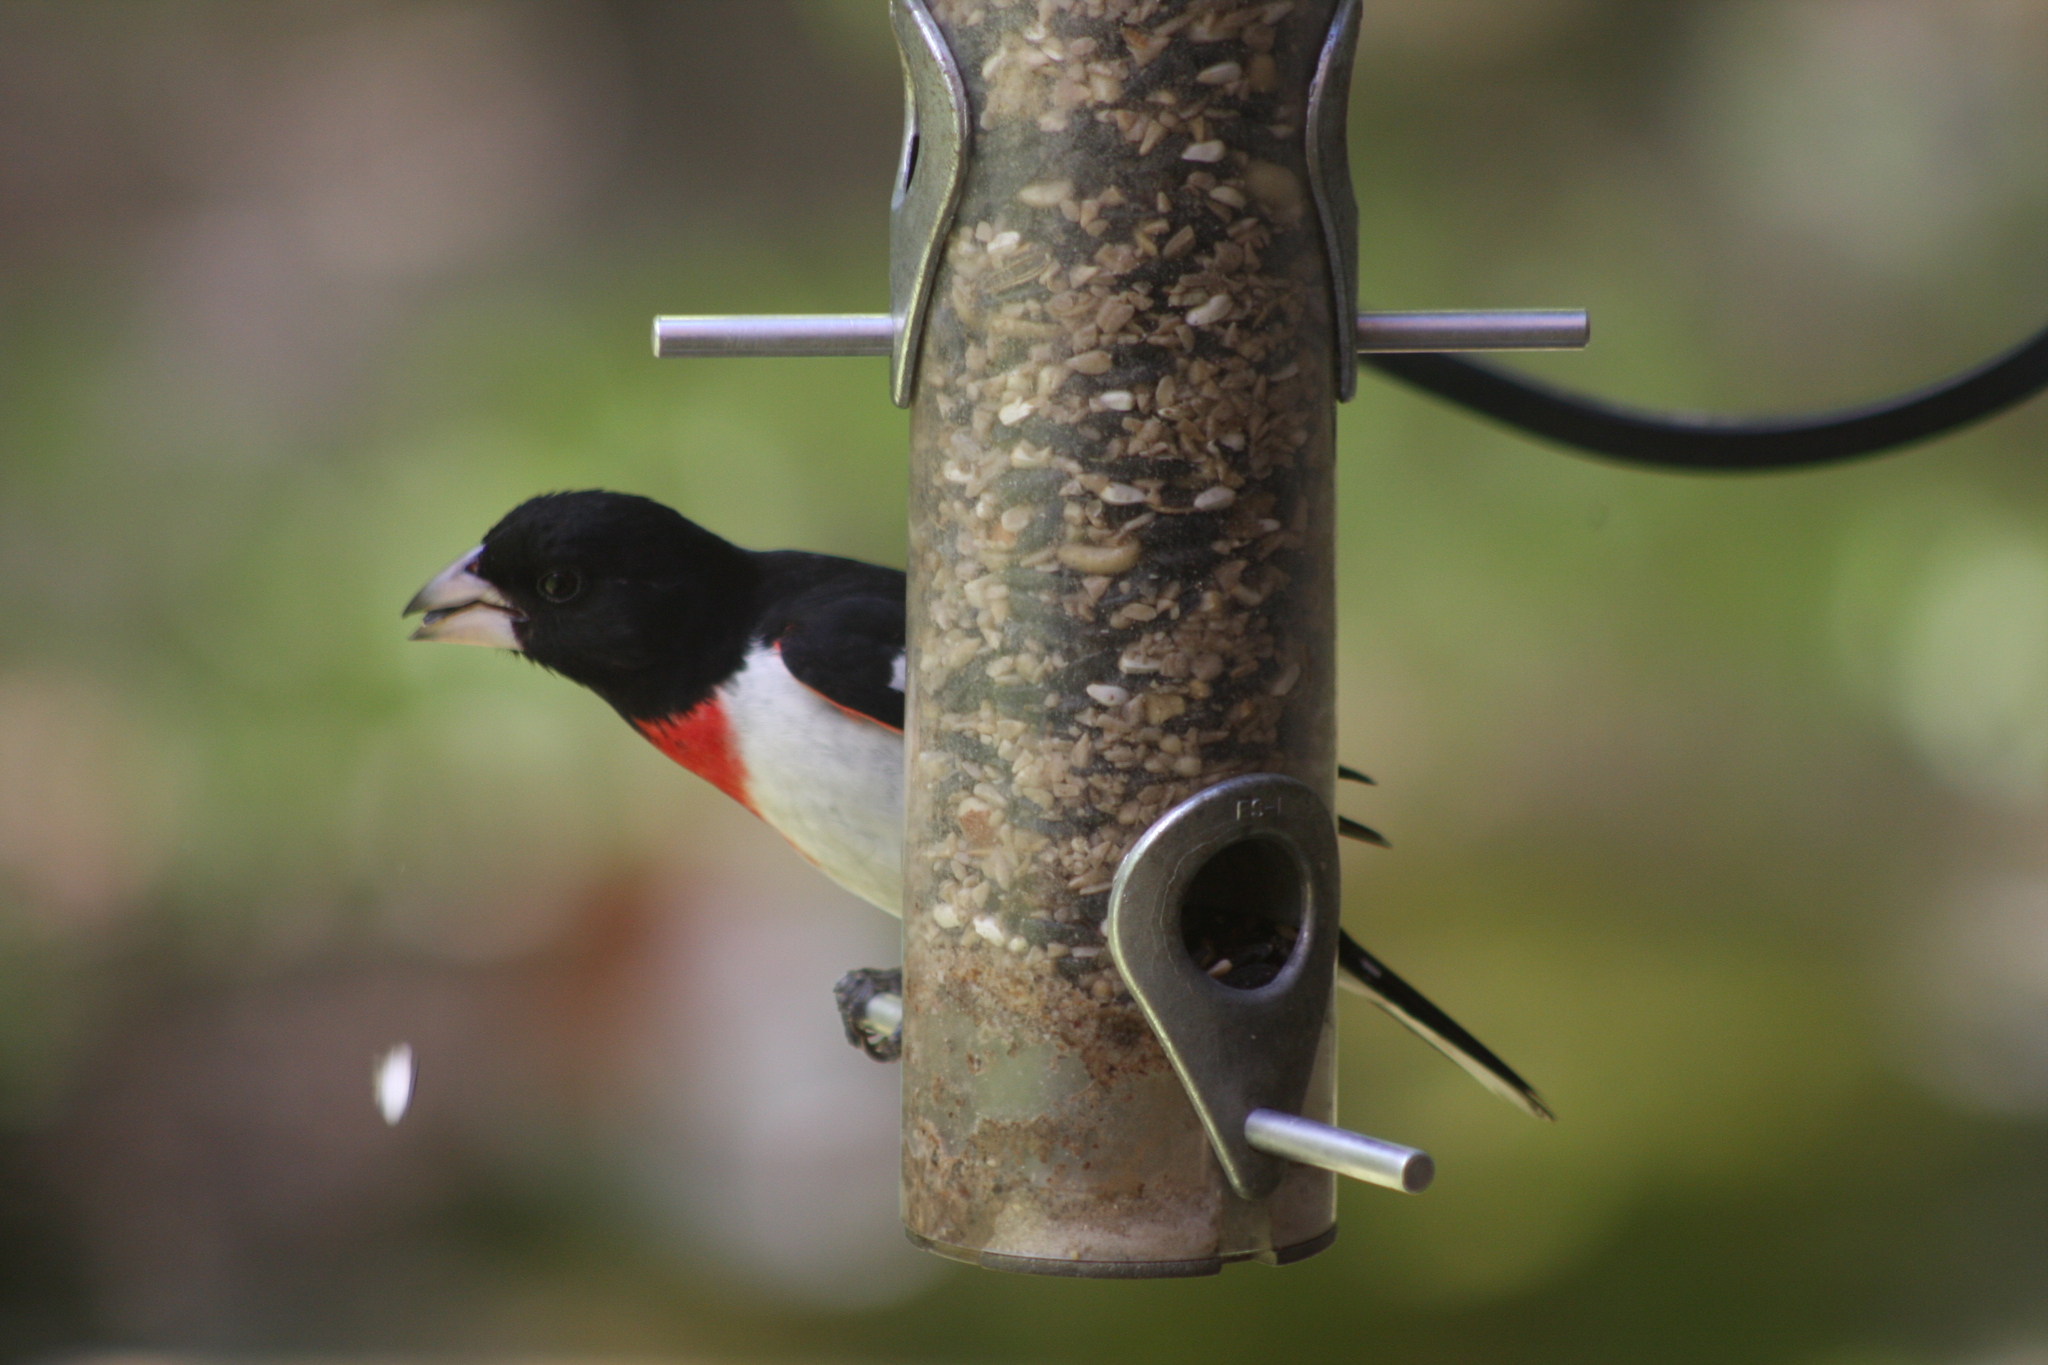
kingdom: Animalia
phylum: Chordata
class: Aves
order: Passeriformes
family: Cardinalidae
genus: Pheucticus
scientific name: Pheucticus ludovicianus
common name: Rose-breasted grosbeak
